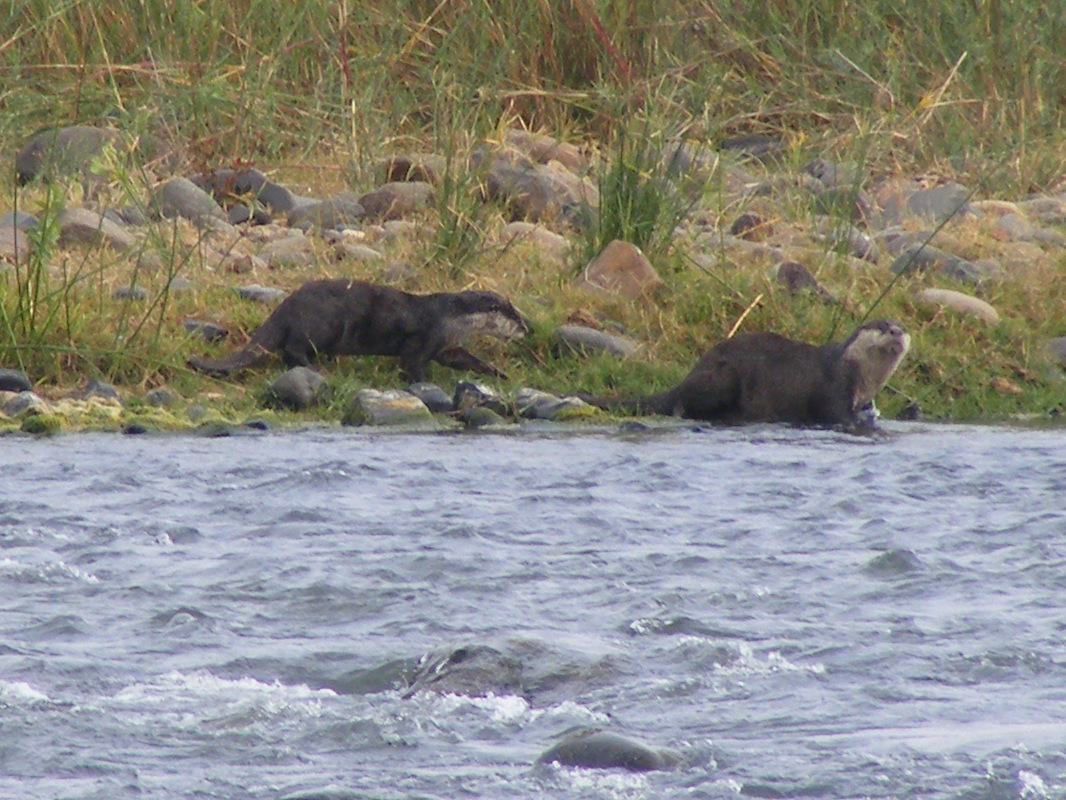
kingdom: Animalia
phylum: Chordata
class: Mammalia
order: Carnivora
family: Mustelidae
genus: Aonyx
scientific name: Aonyx capensis
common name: African clawless otter
